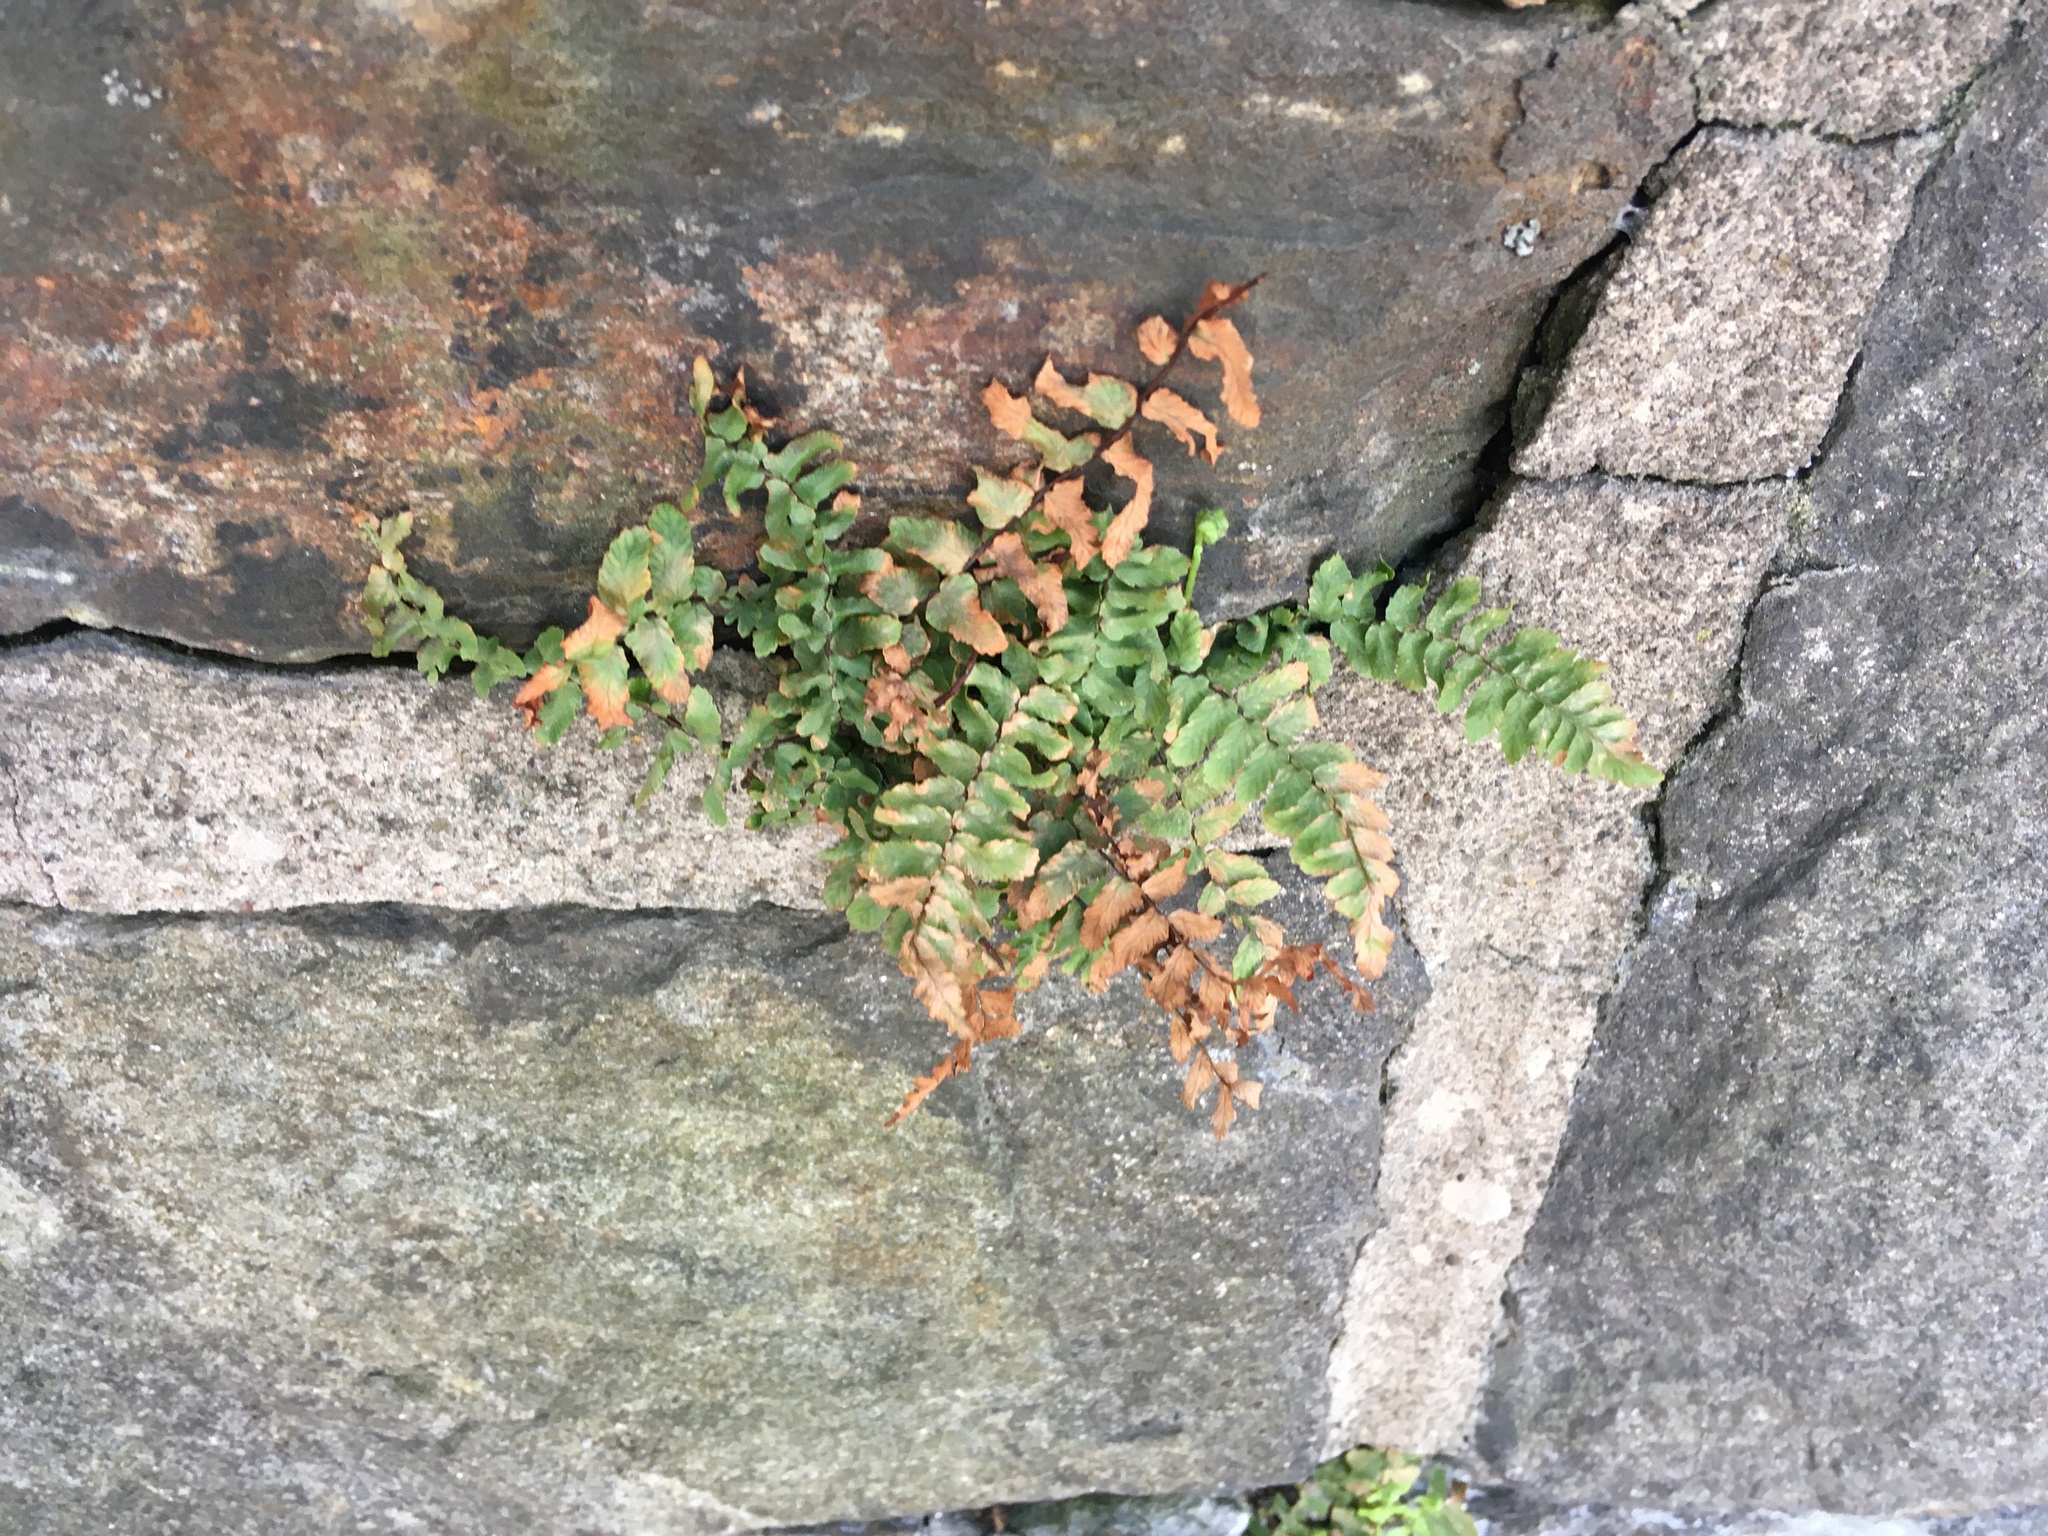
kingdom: Plantae
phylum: Tracheophyta
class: Polypodiopsida
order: Polypodiales
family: Aspleniaceae
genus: Asplenium
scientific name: Asplenium platyneuron
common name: Ebony spleenwort
